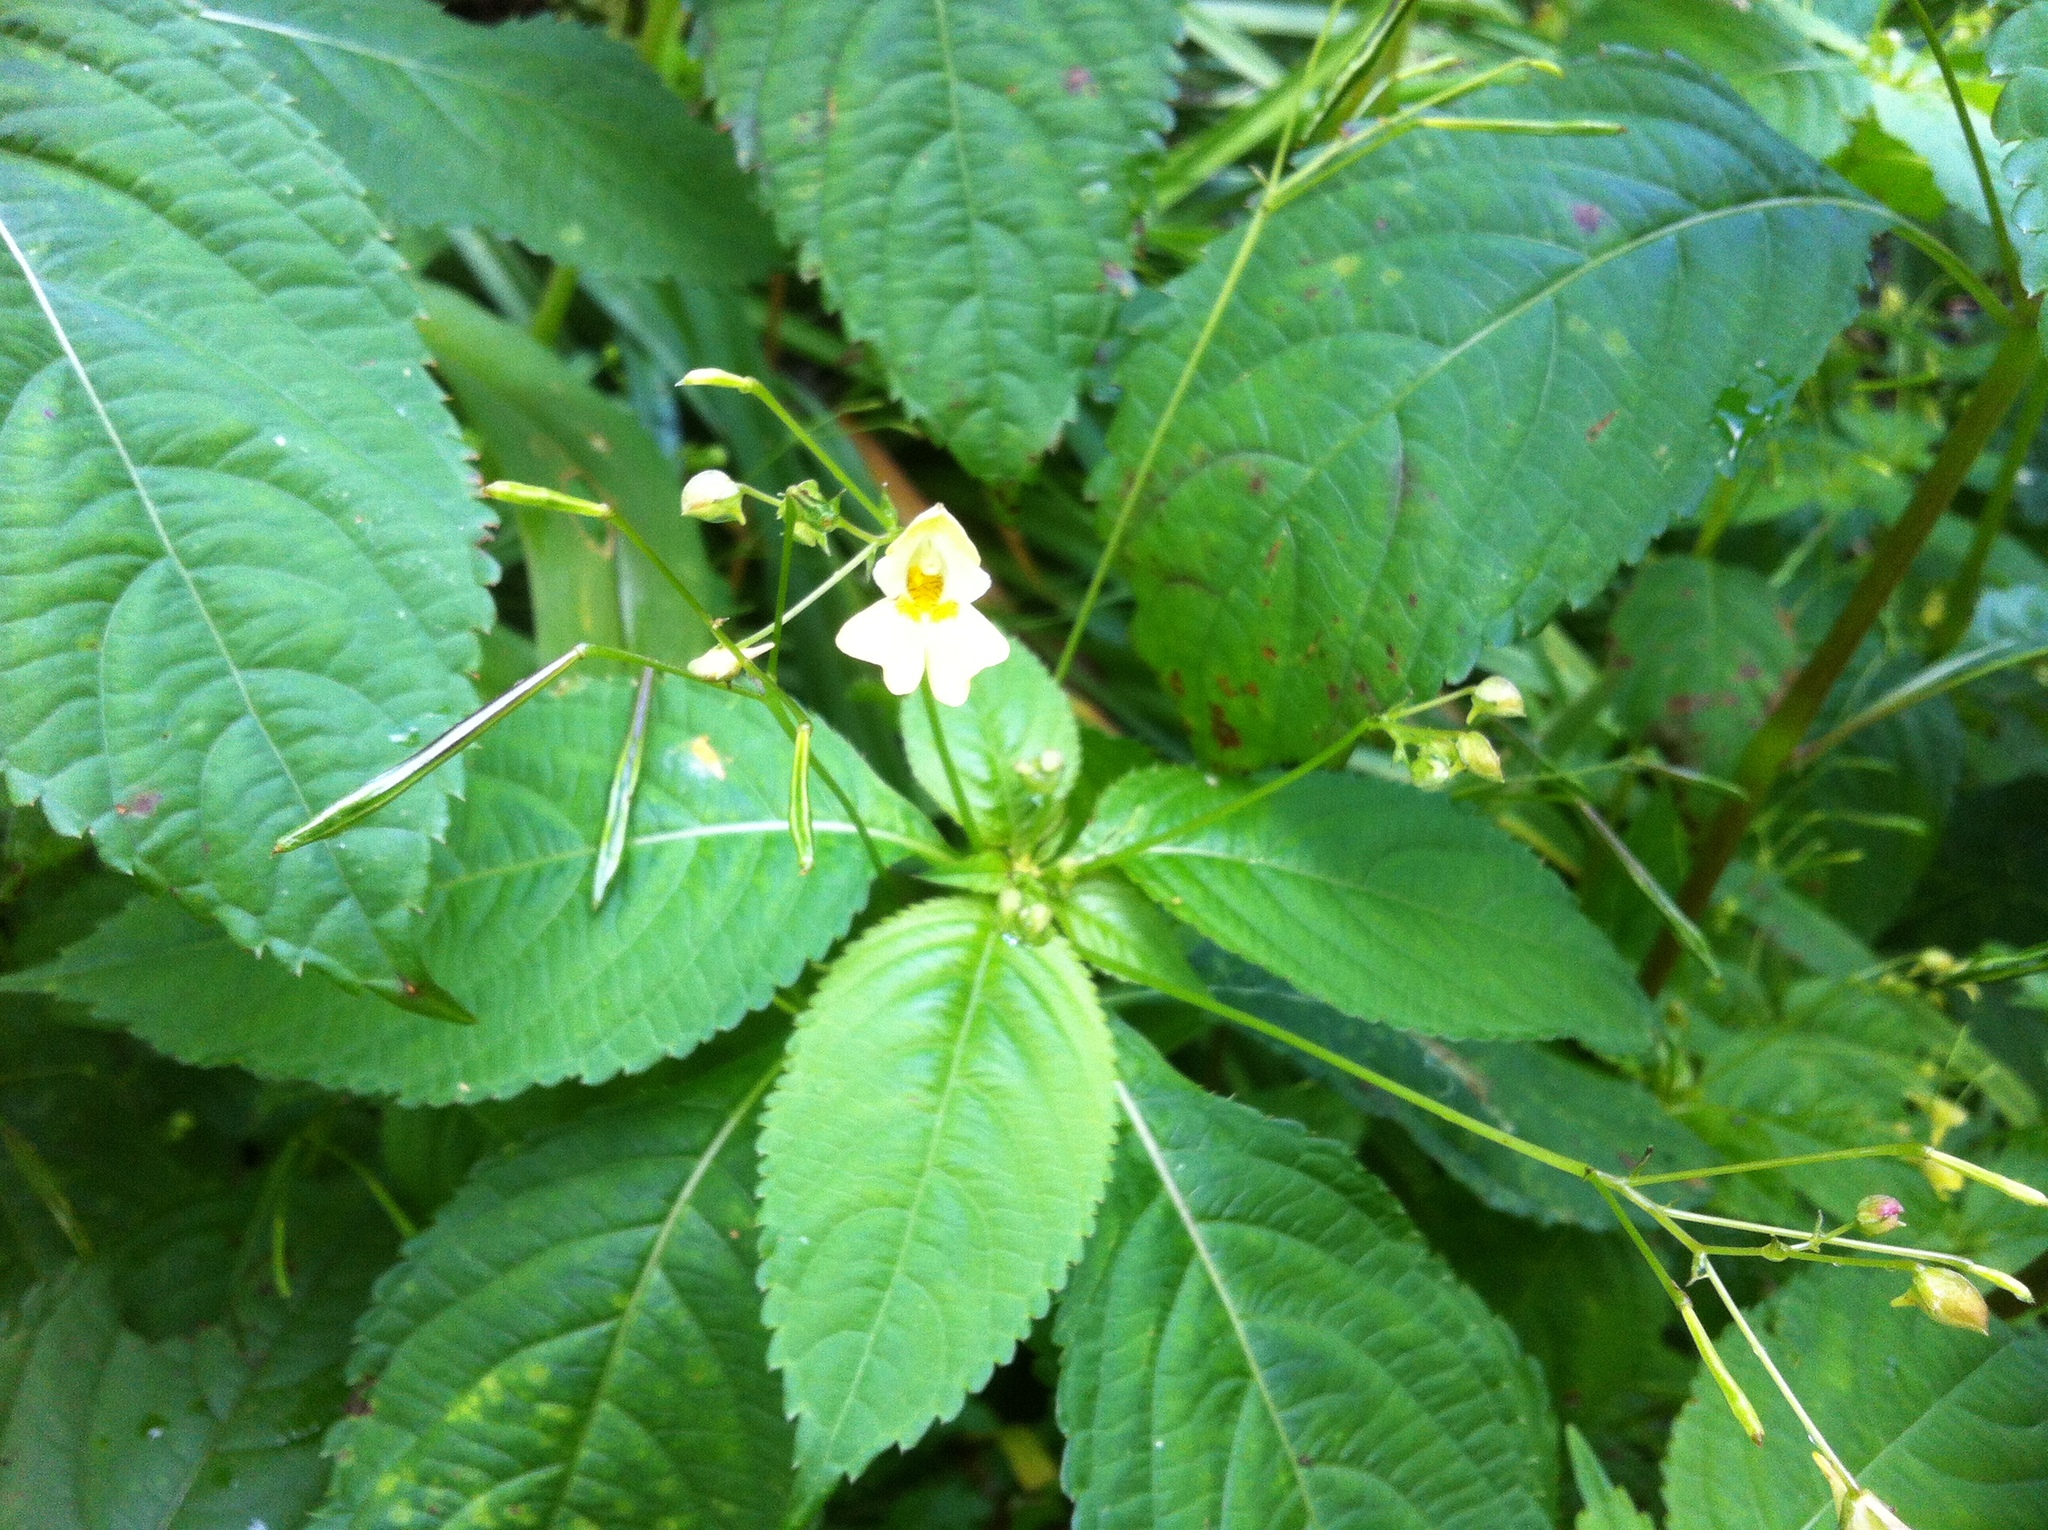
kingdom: Plantae
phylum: Tracheophyta
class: Magnoliopsida
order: Ericales
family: Balsaminaceae
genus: Impatiens
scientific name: Impatiens parviflora
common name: Small balsam
